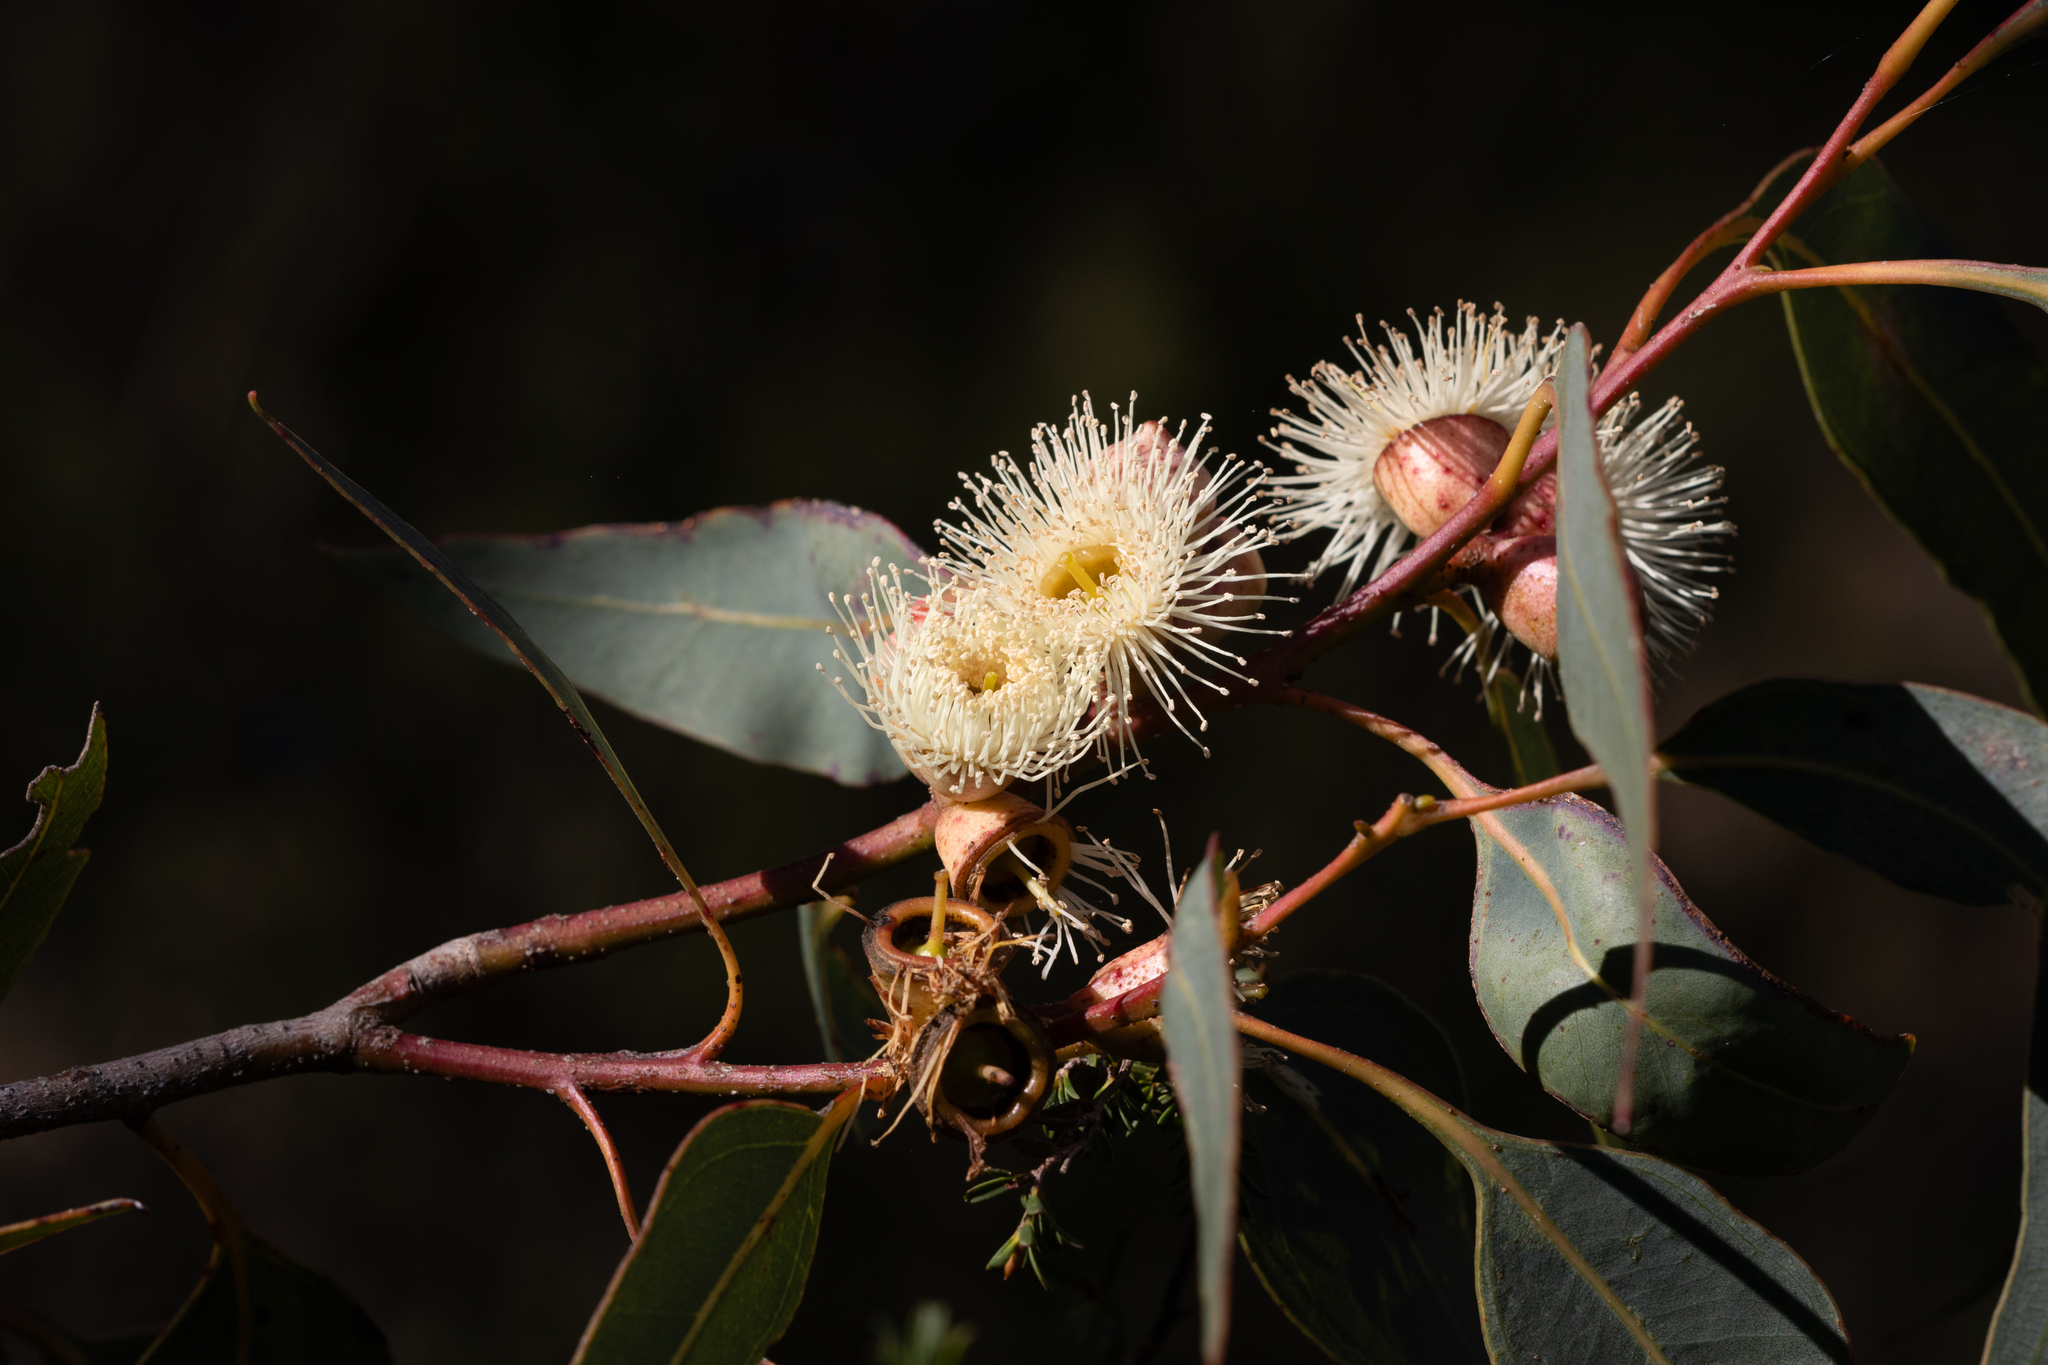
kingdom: Plantae
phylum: Tracheophyta
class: Magnoliopsida
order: Myrtales
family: Myrtaceae
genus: Eucalyptus
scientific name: Eucalyptus cosmophylla
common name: Bog-gum
